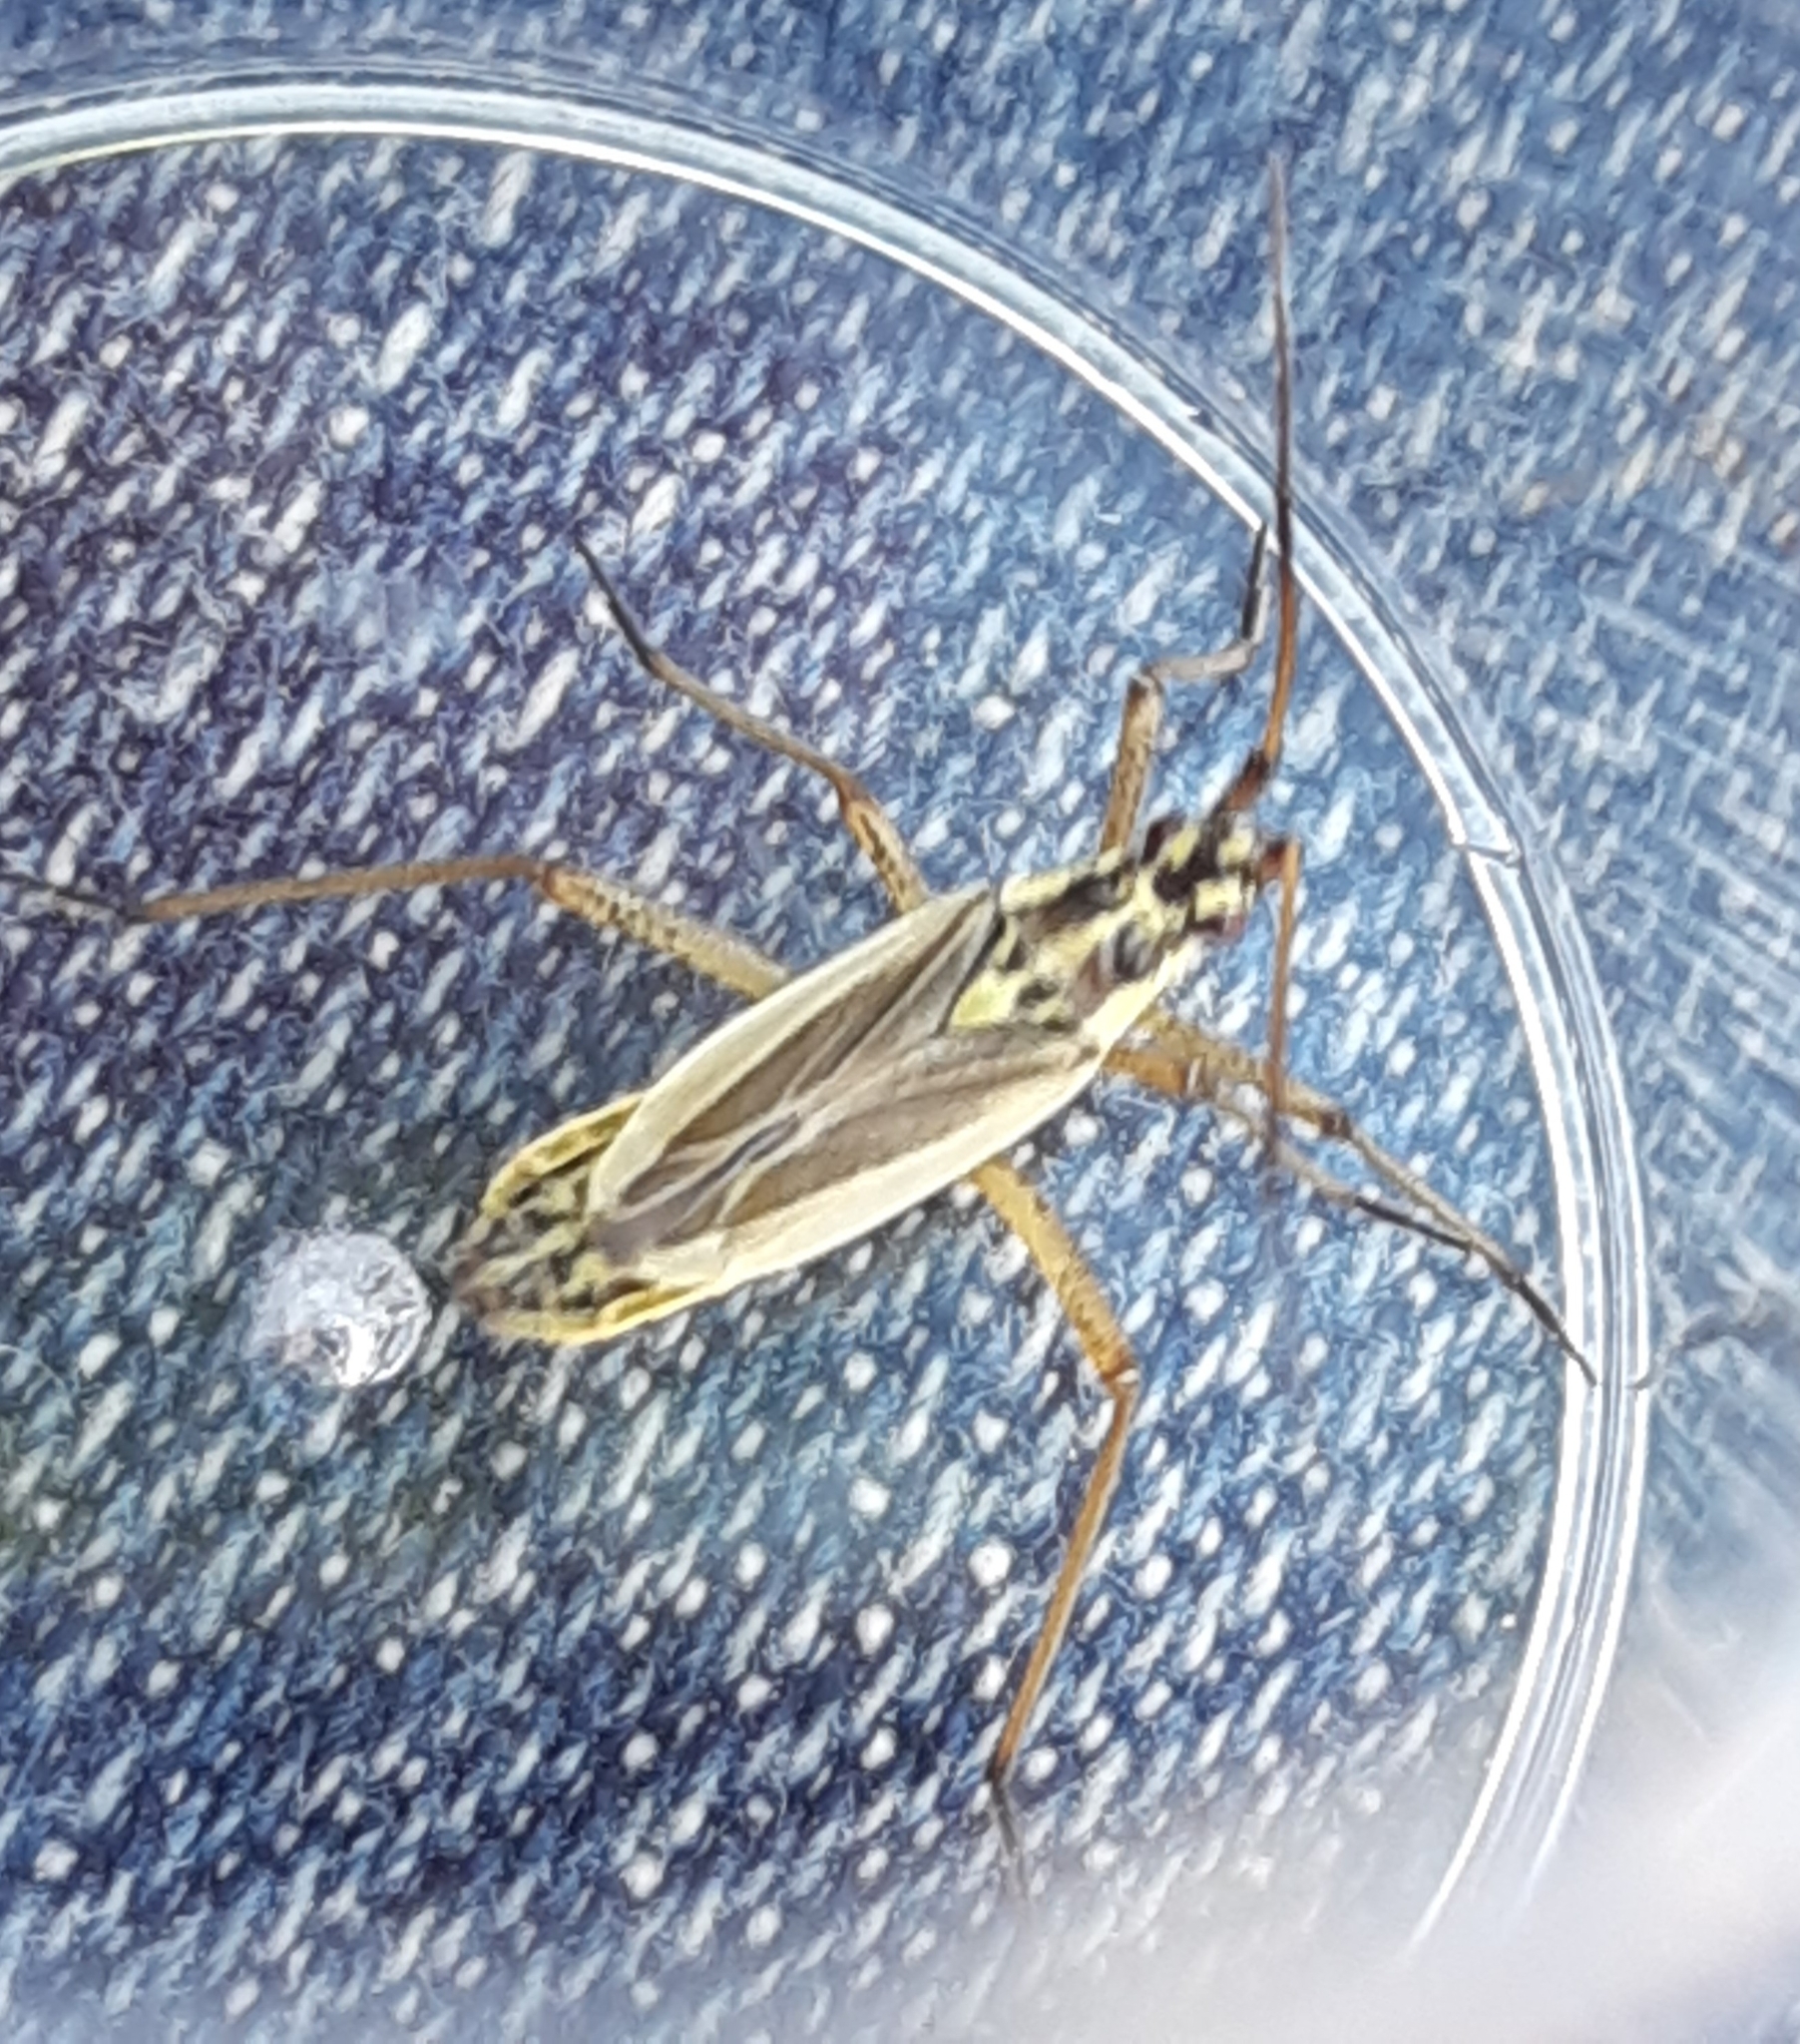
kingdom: Animalia
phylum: Arthropoda
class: Insecta
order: Hemiptera
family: Miridae
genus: Leptopterna
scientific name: Leptopterna dolabrata
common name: Meadow plant bug
